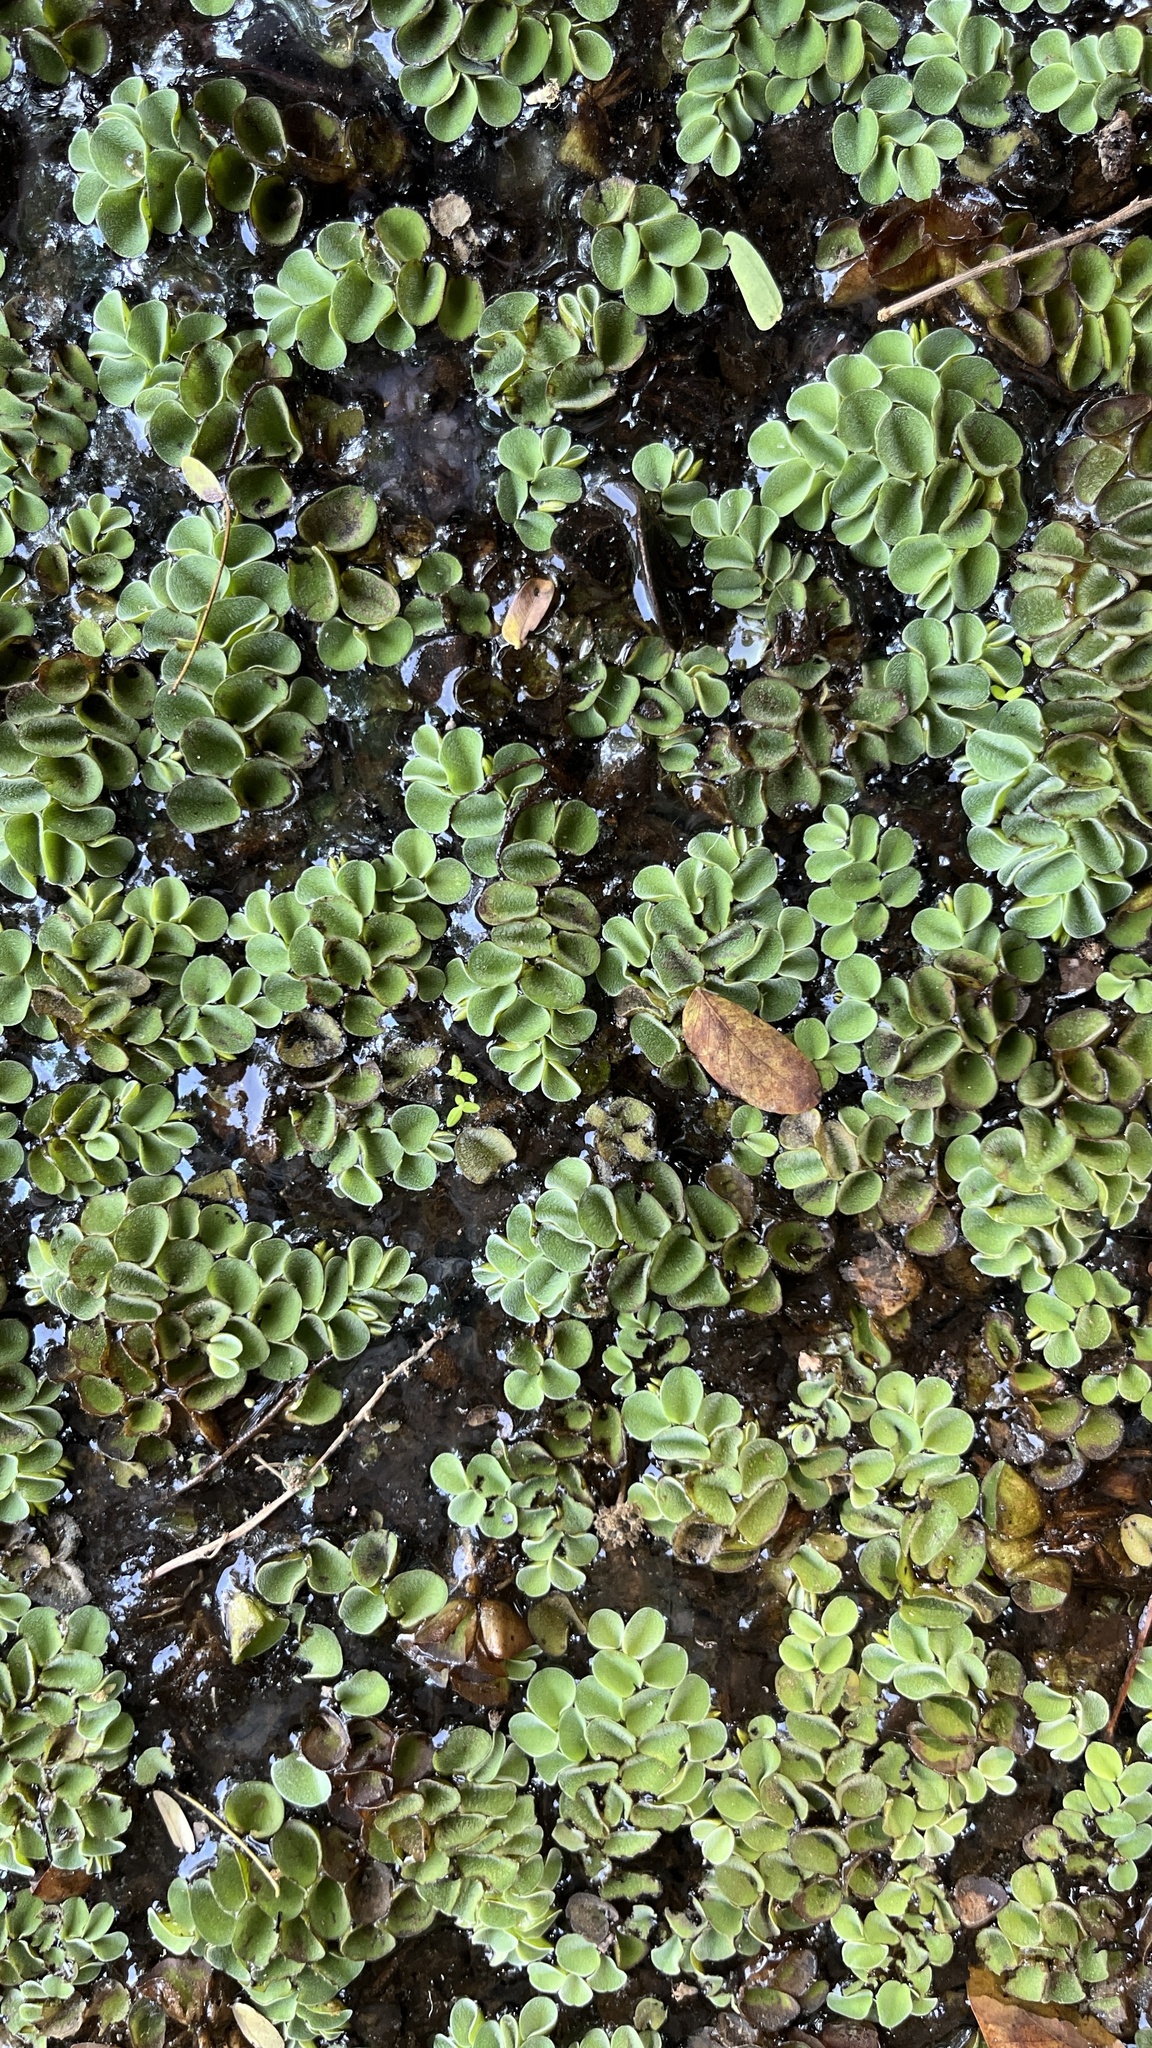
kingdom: Plantae
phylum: Tracheophyta
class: Polypodiopsida
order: Salviniales
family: Salviniaceae
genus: Salvinia
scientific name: Salvinia cucullata
